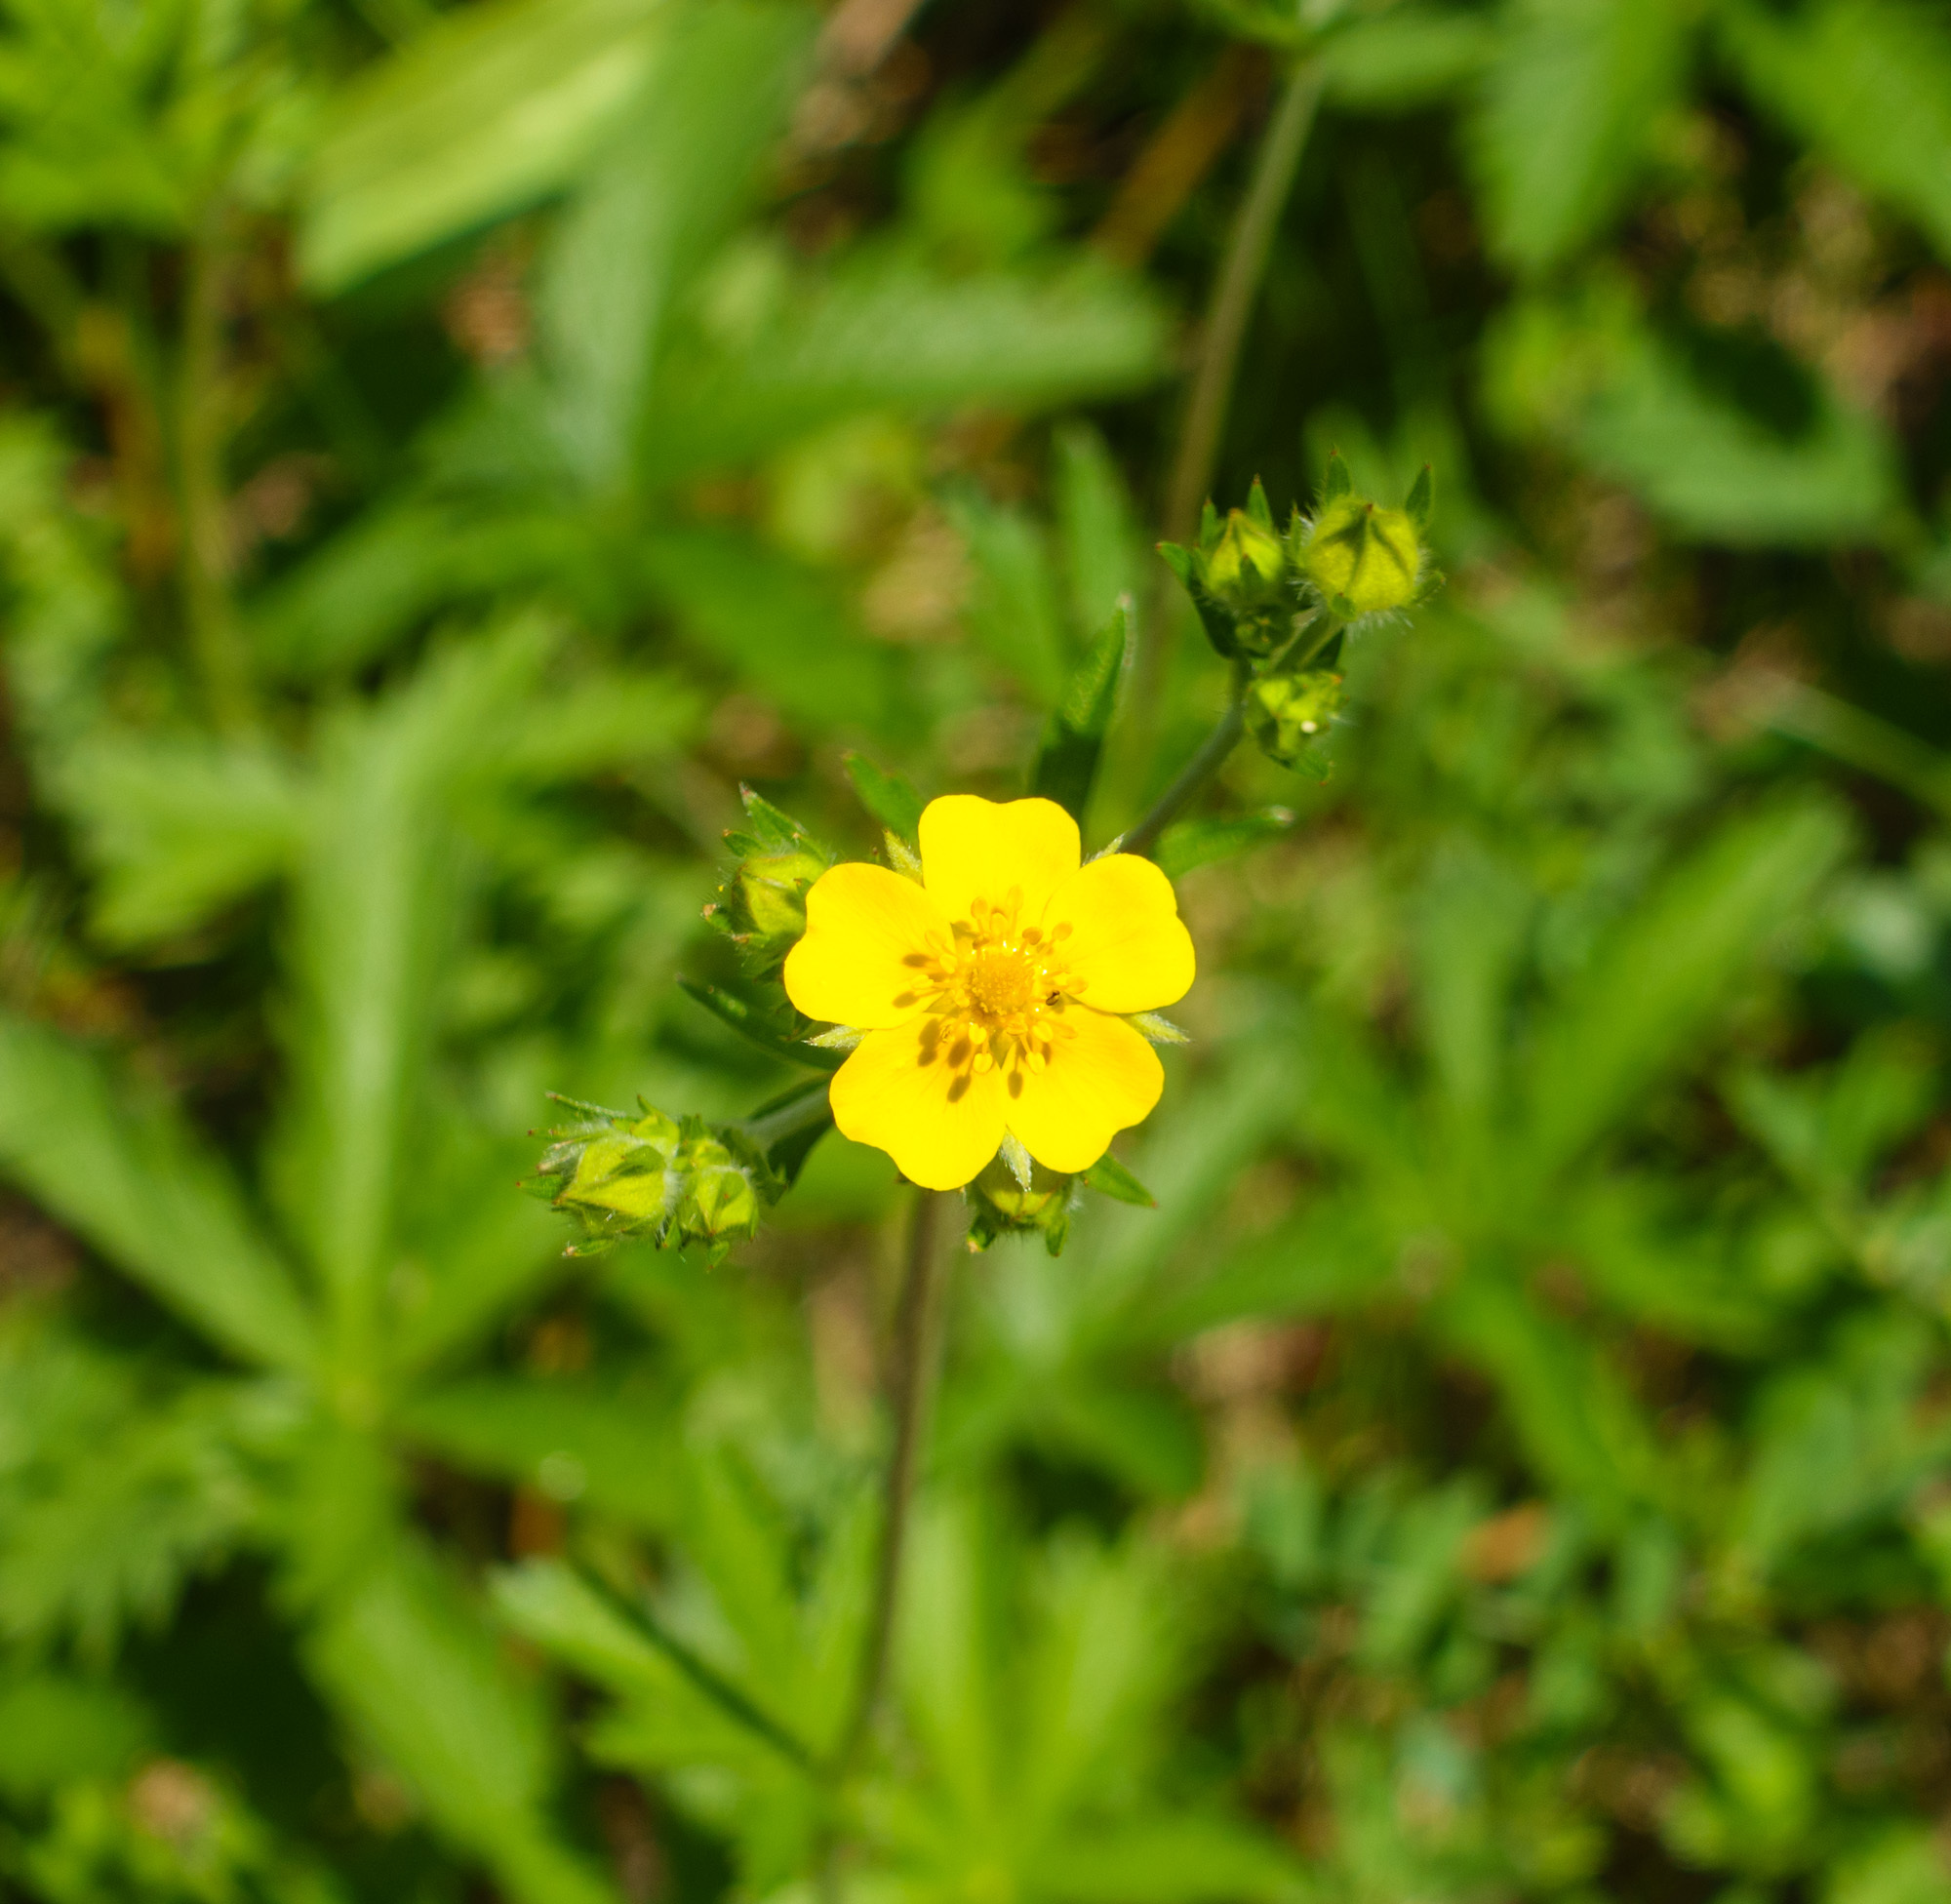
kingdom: Plantae
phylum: Tracheophyta
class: Magnoliopsida
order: Rosales
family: Rosaceae
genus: Potentilla
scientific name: Potentilla gracilis
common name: Graceful cinquefoil
